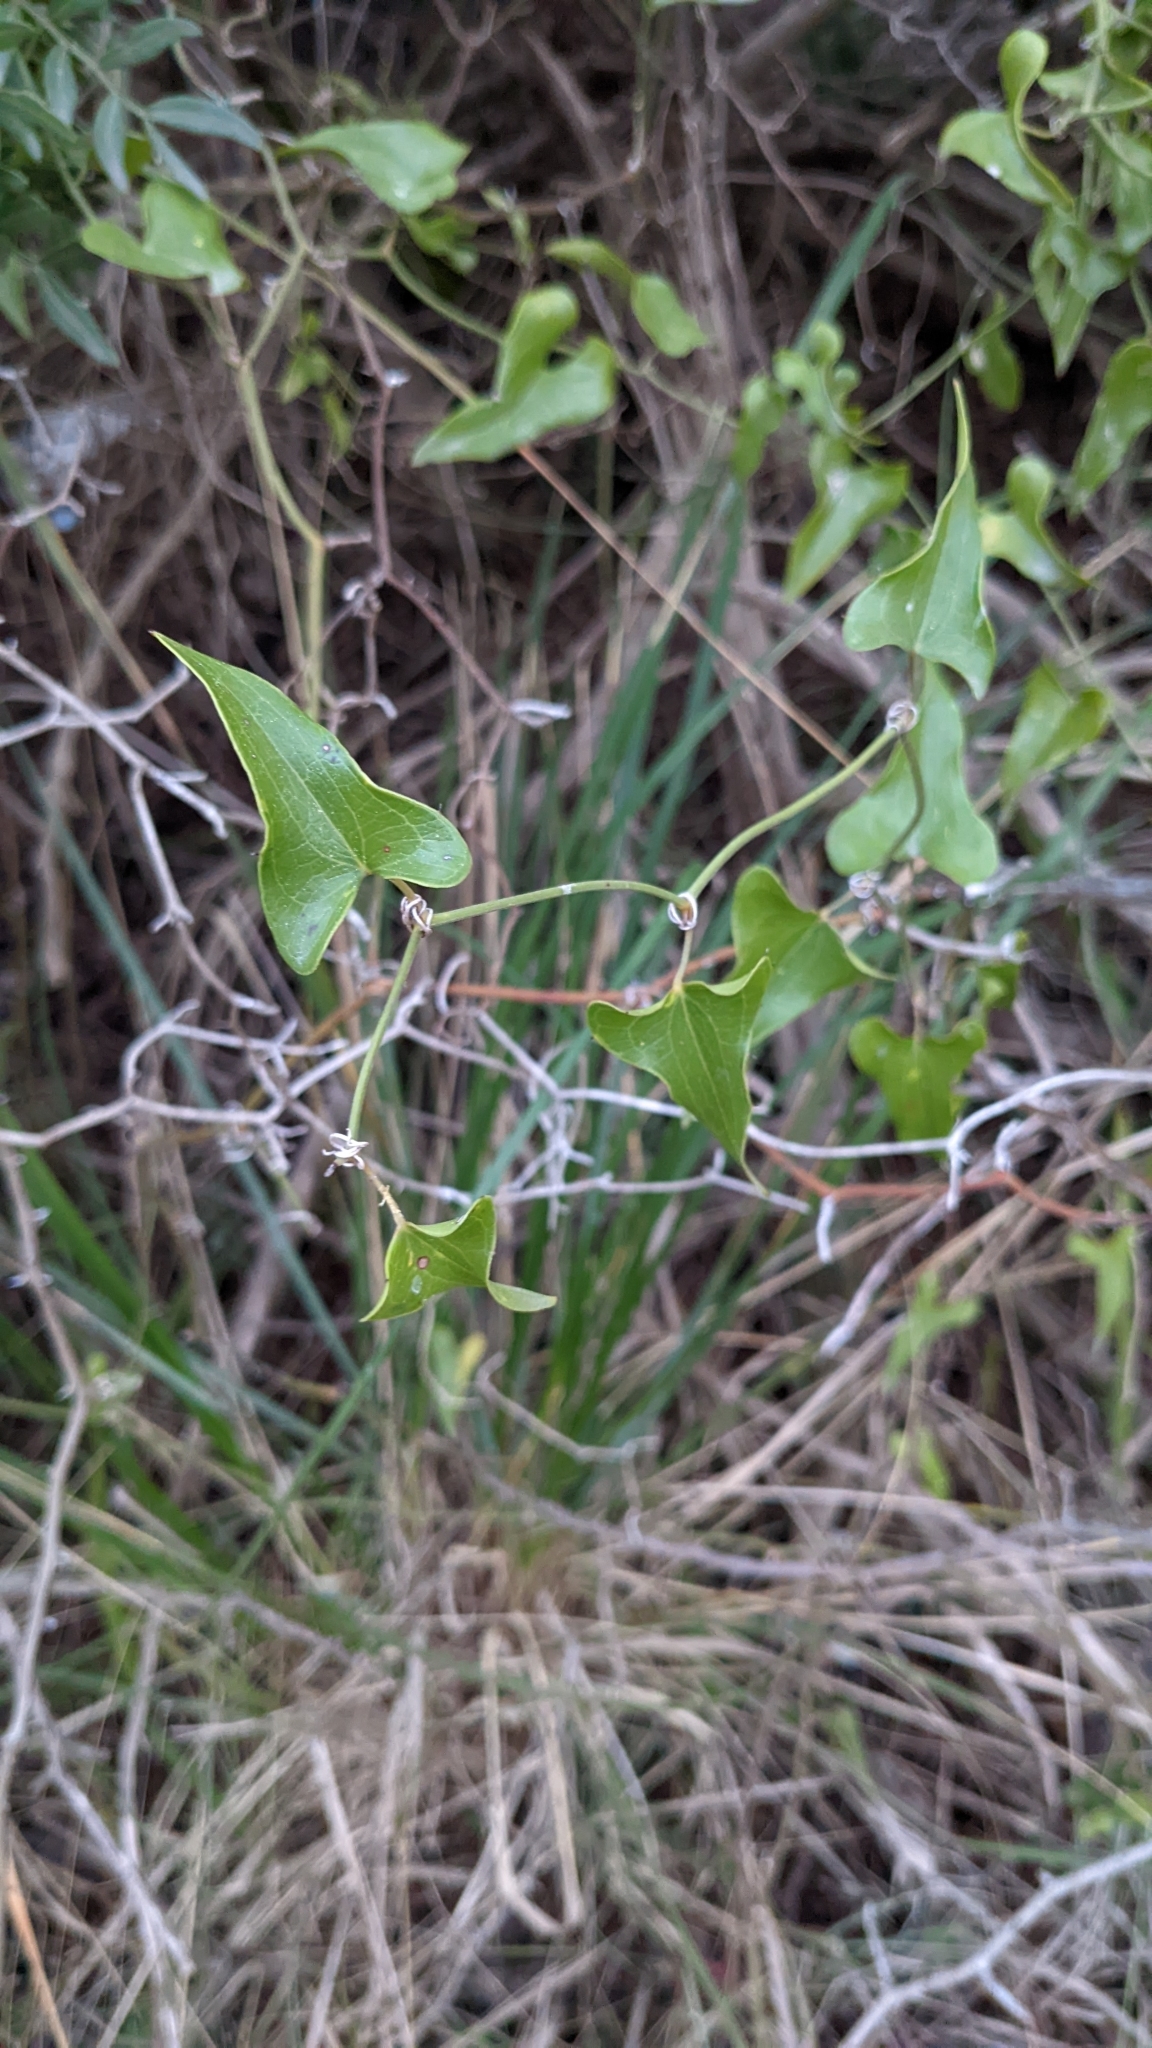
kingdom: Plantae
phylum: Tracheophyta
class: Liliopsida
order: Liliales
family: Smilacaceae
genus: Smilax
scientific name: Smilax aspera
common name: Common smilax
